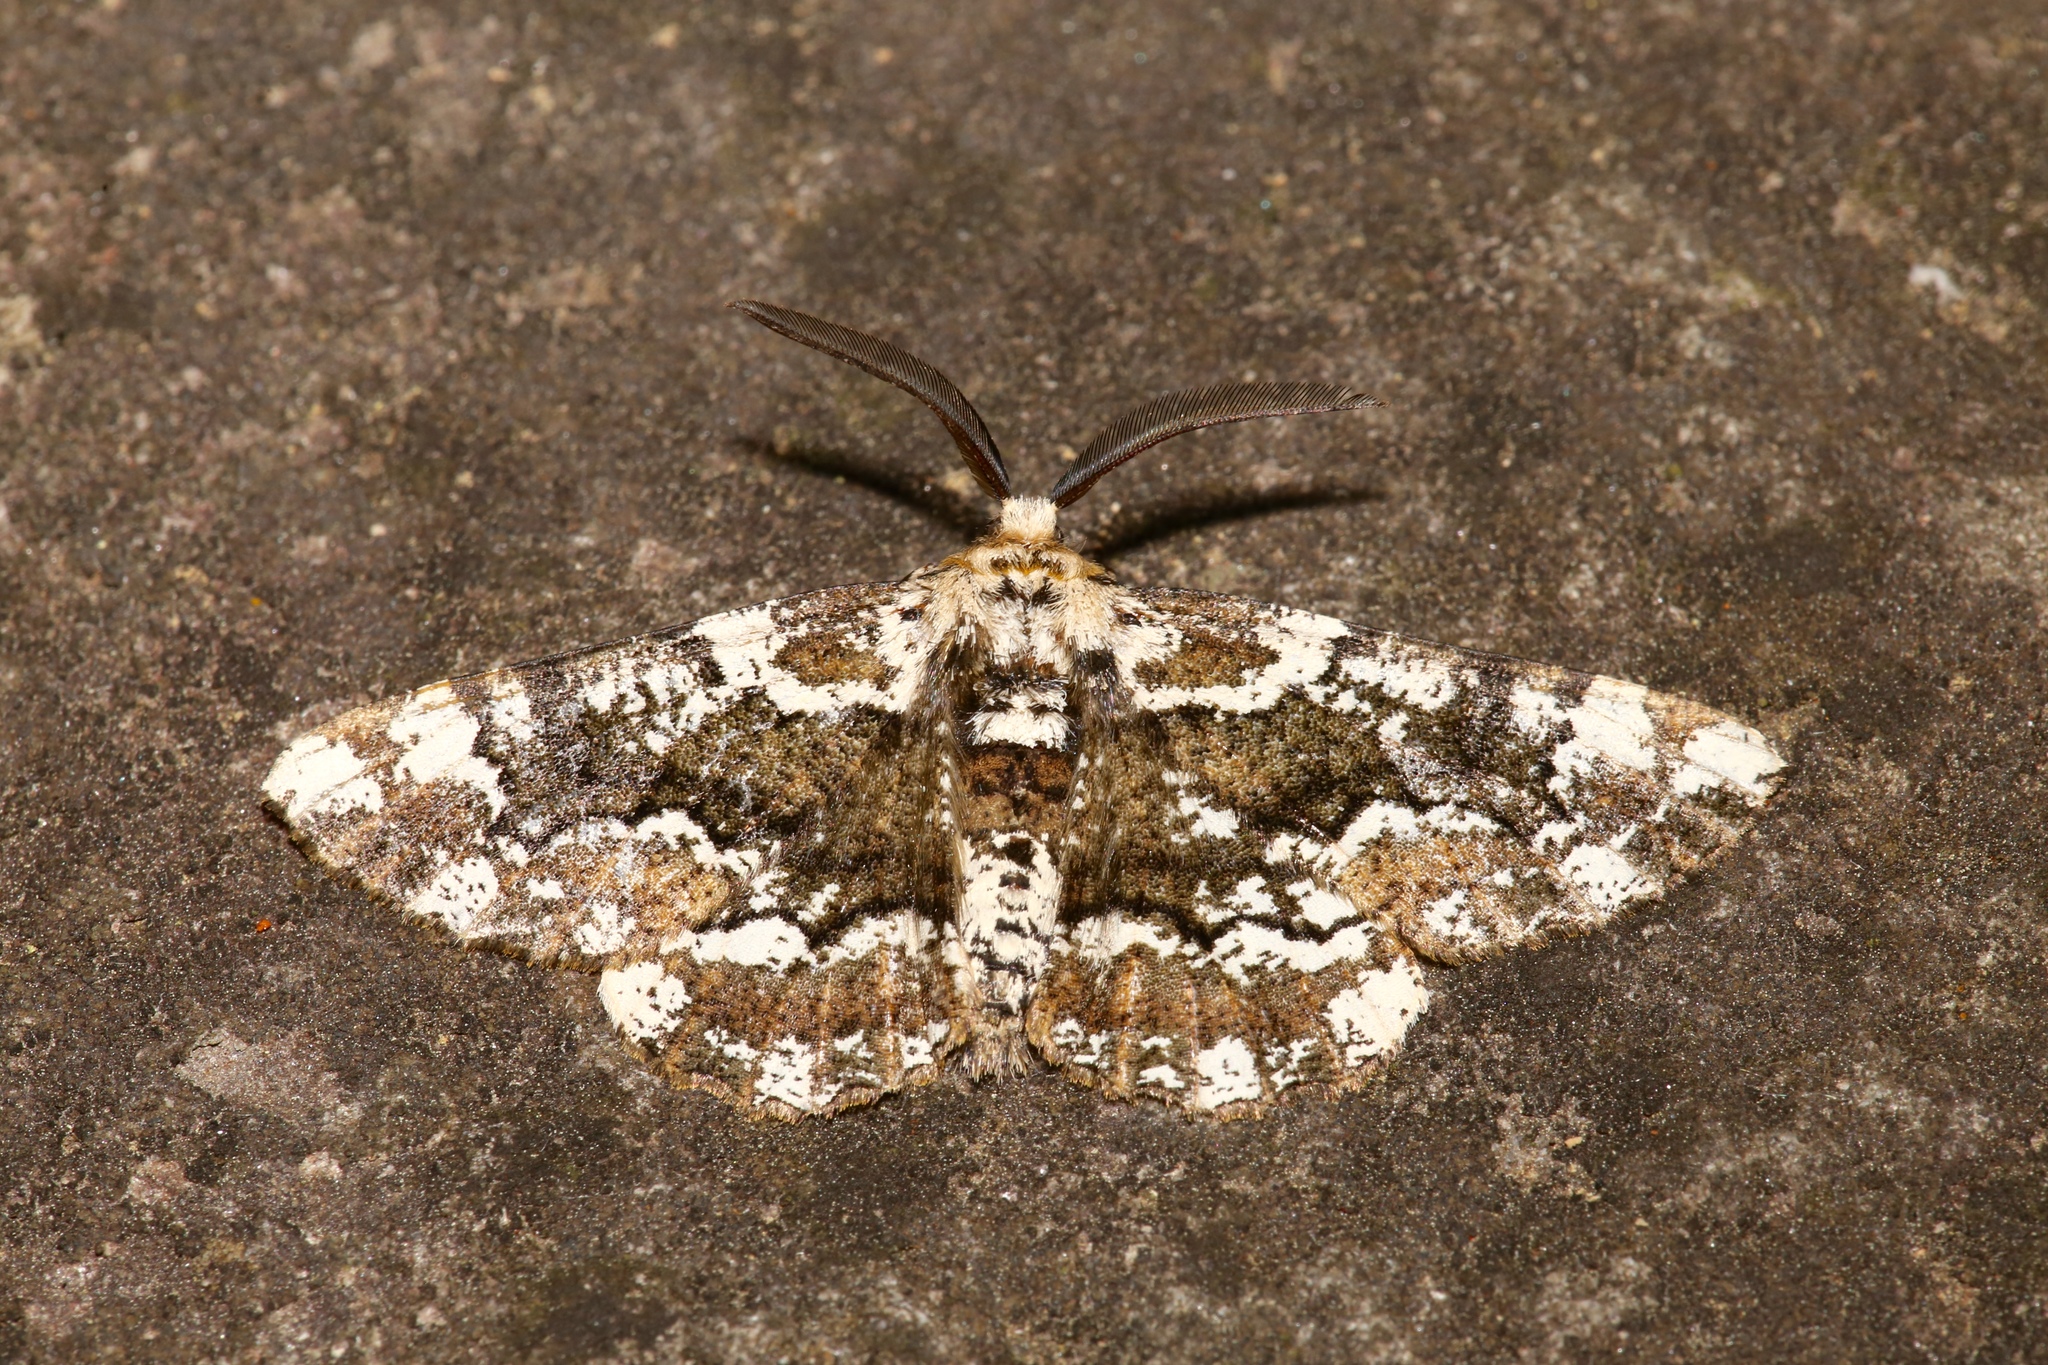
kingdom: Animalia
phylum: Arthropoda
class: Insecta
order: Lepidoptera
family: Geometridae
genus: Phaeoura
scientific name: Phaeoura quernaria
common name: Oak beauty
